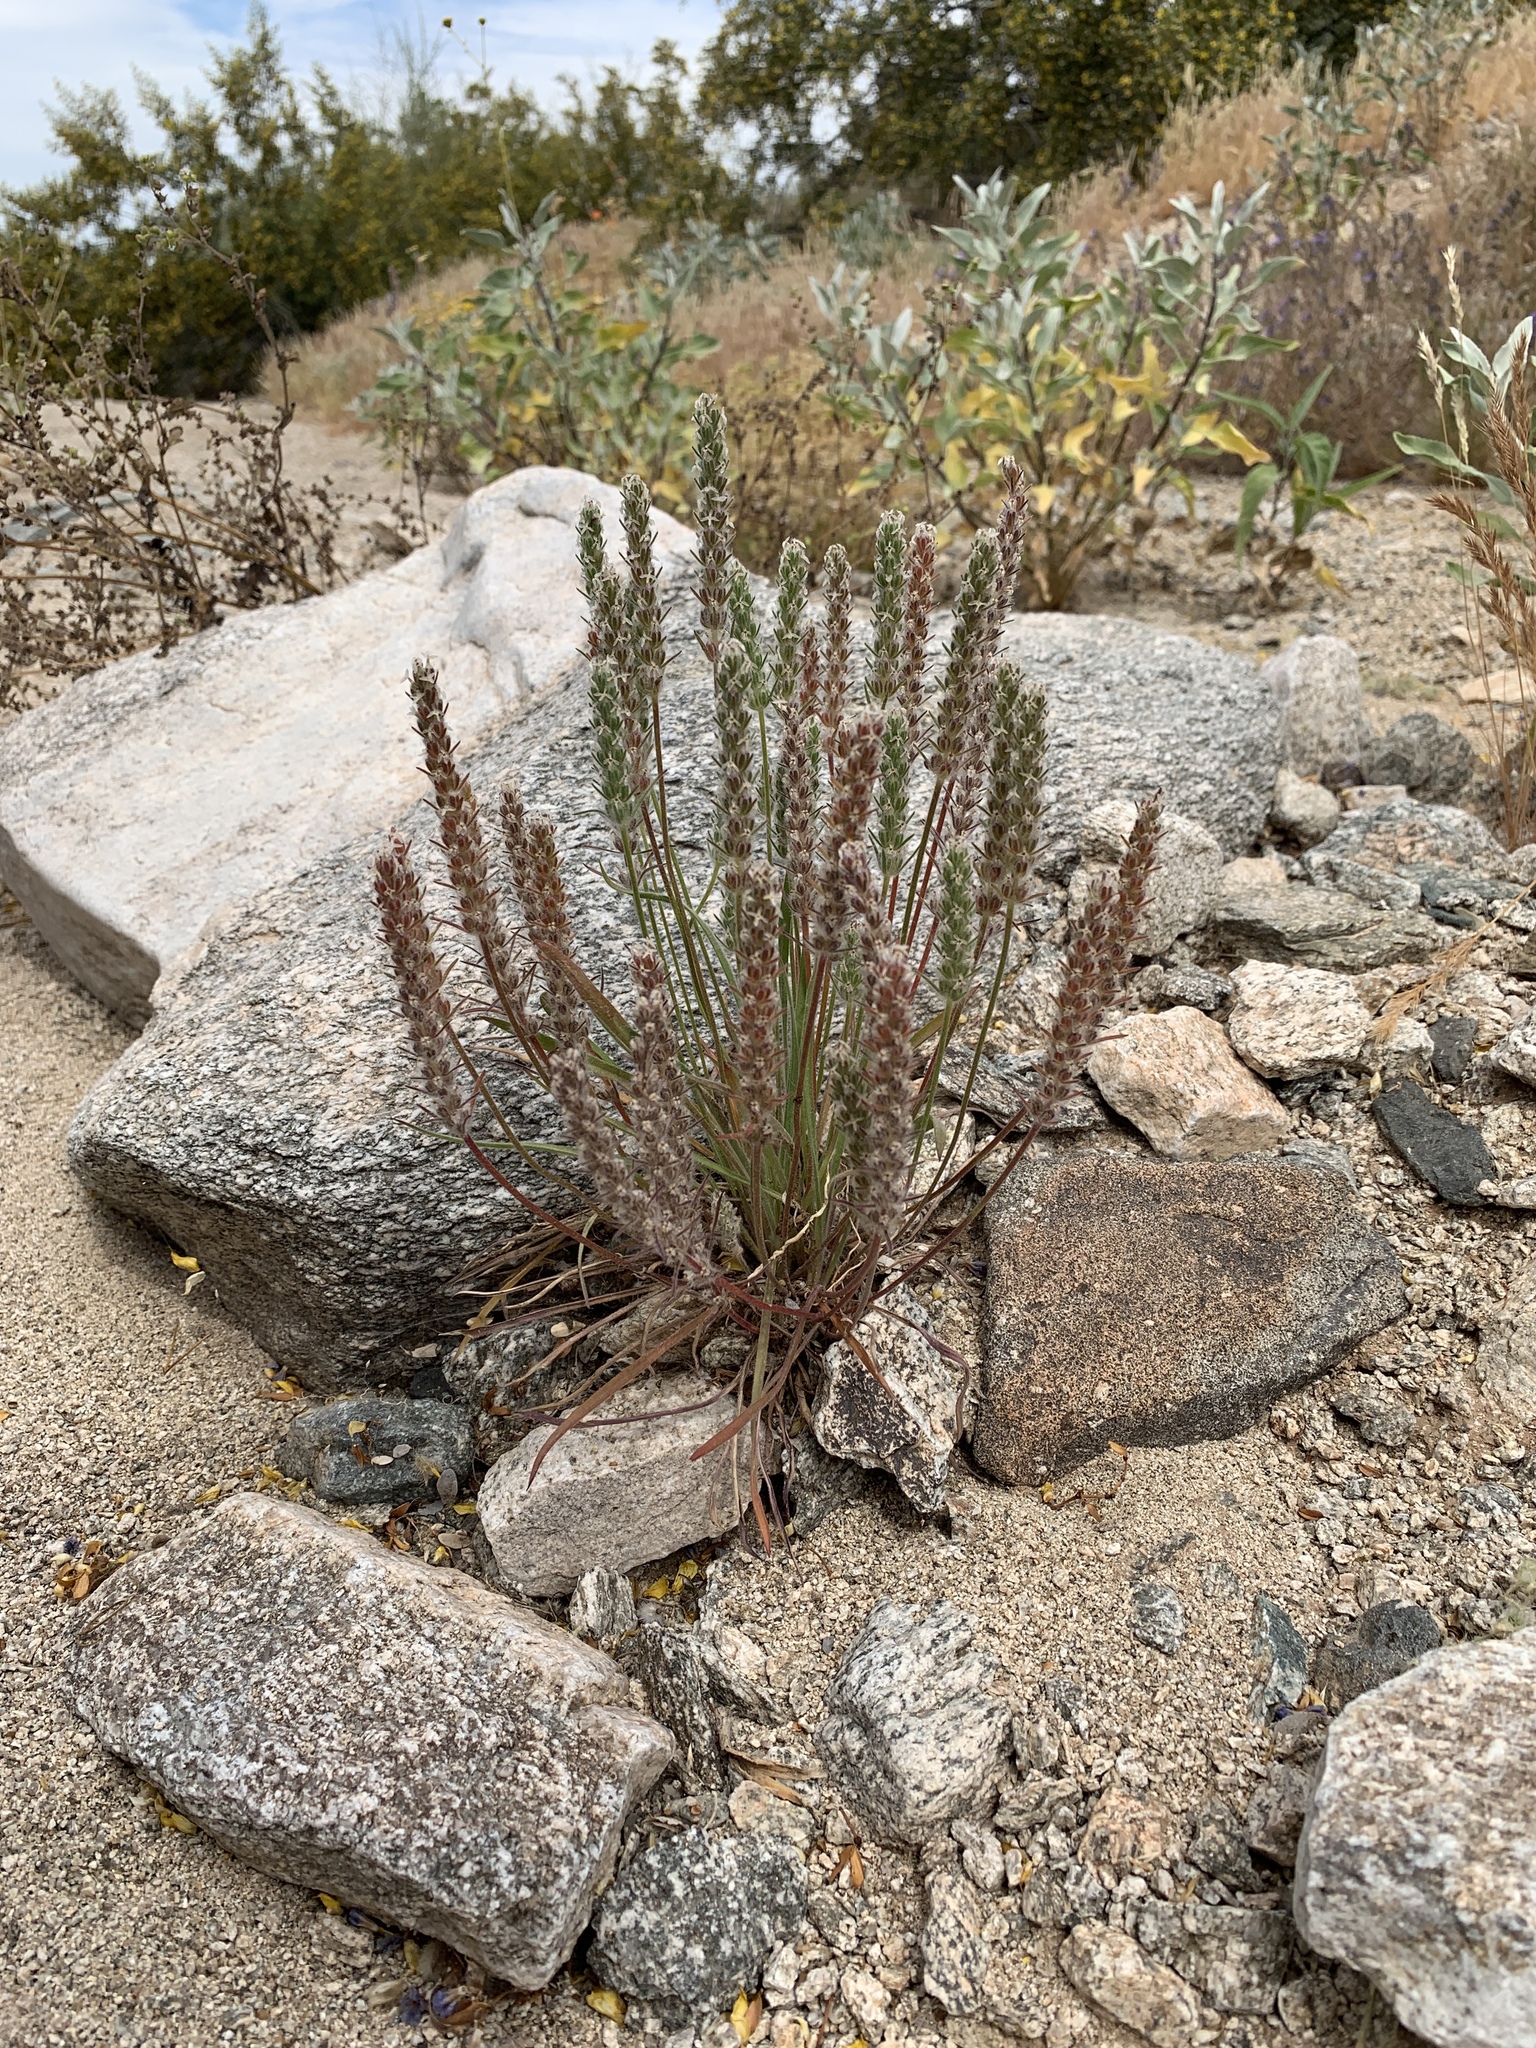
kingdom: Plantae
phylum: Tracheophyta
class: Magnoliopsida
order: Lamiales
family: Plantaginaceae
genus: Plantago
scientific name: Plantago patagonica
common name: Patagonia indian-wheat
